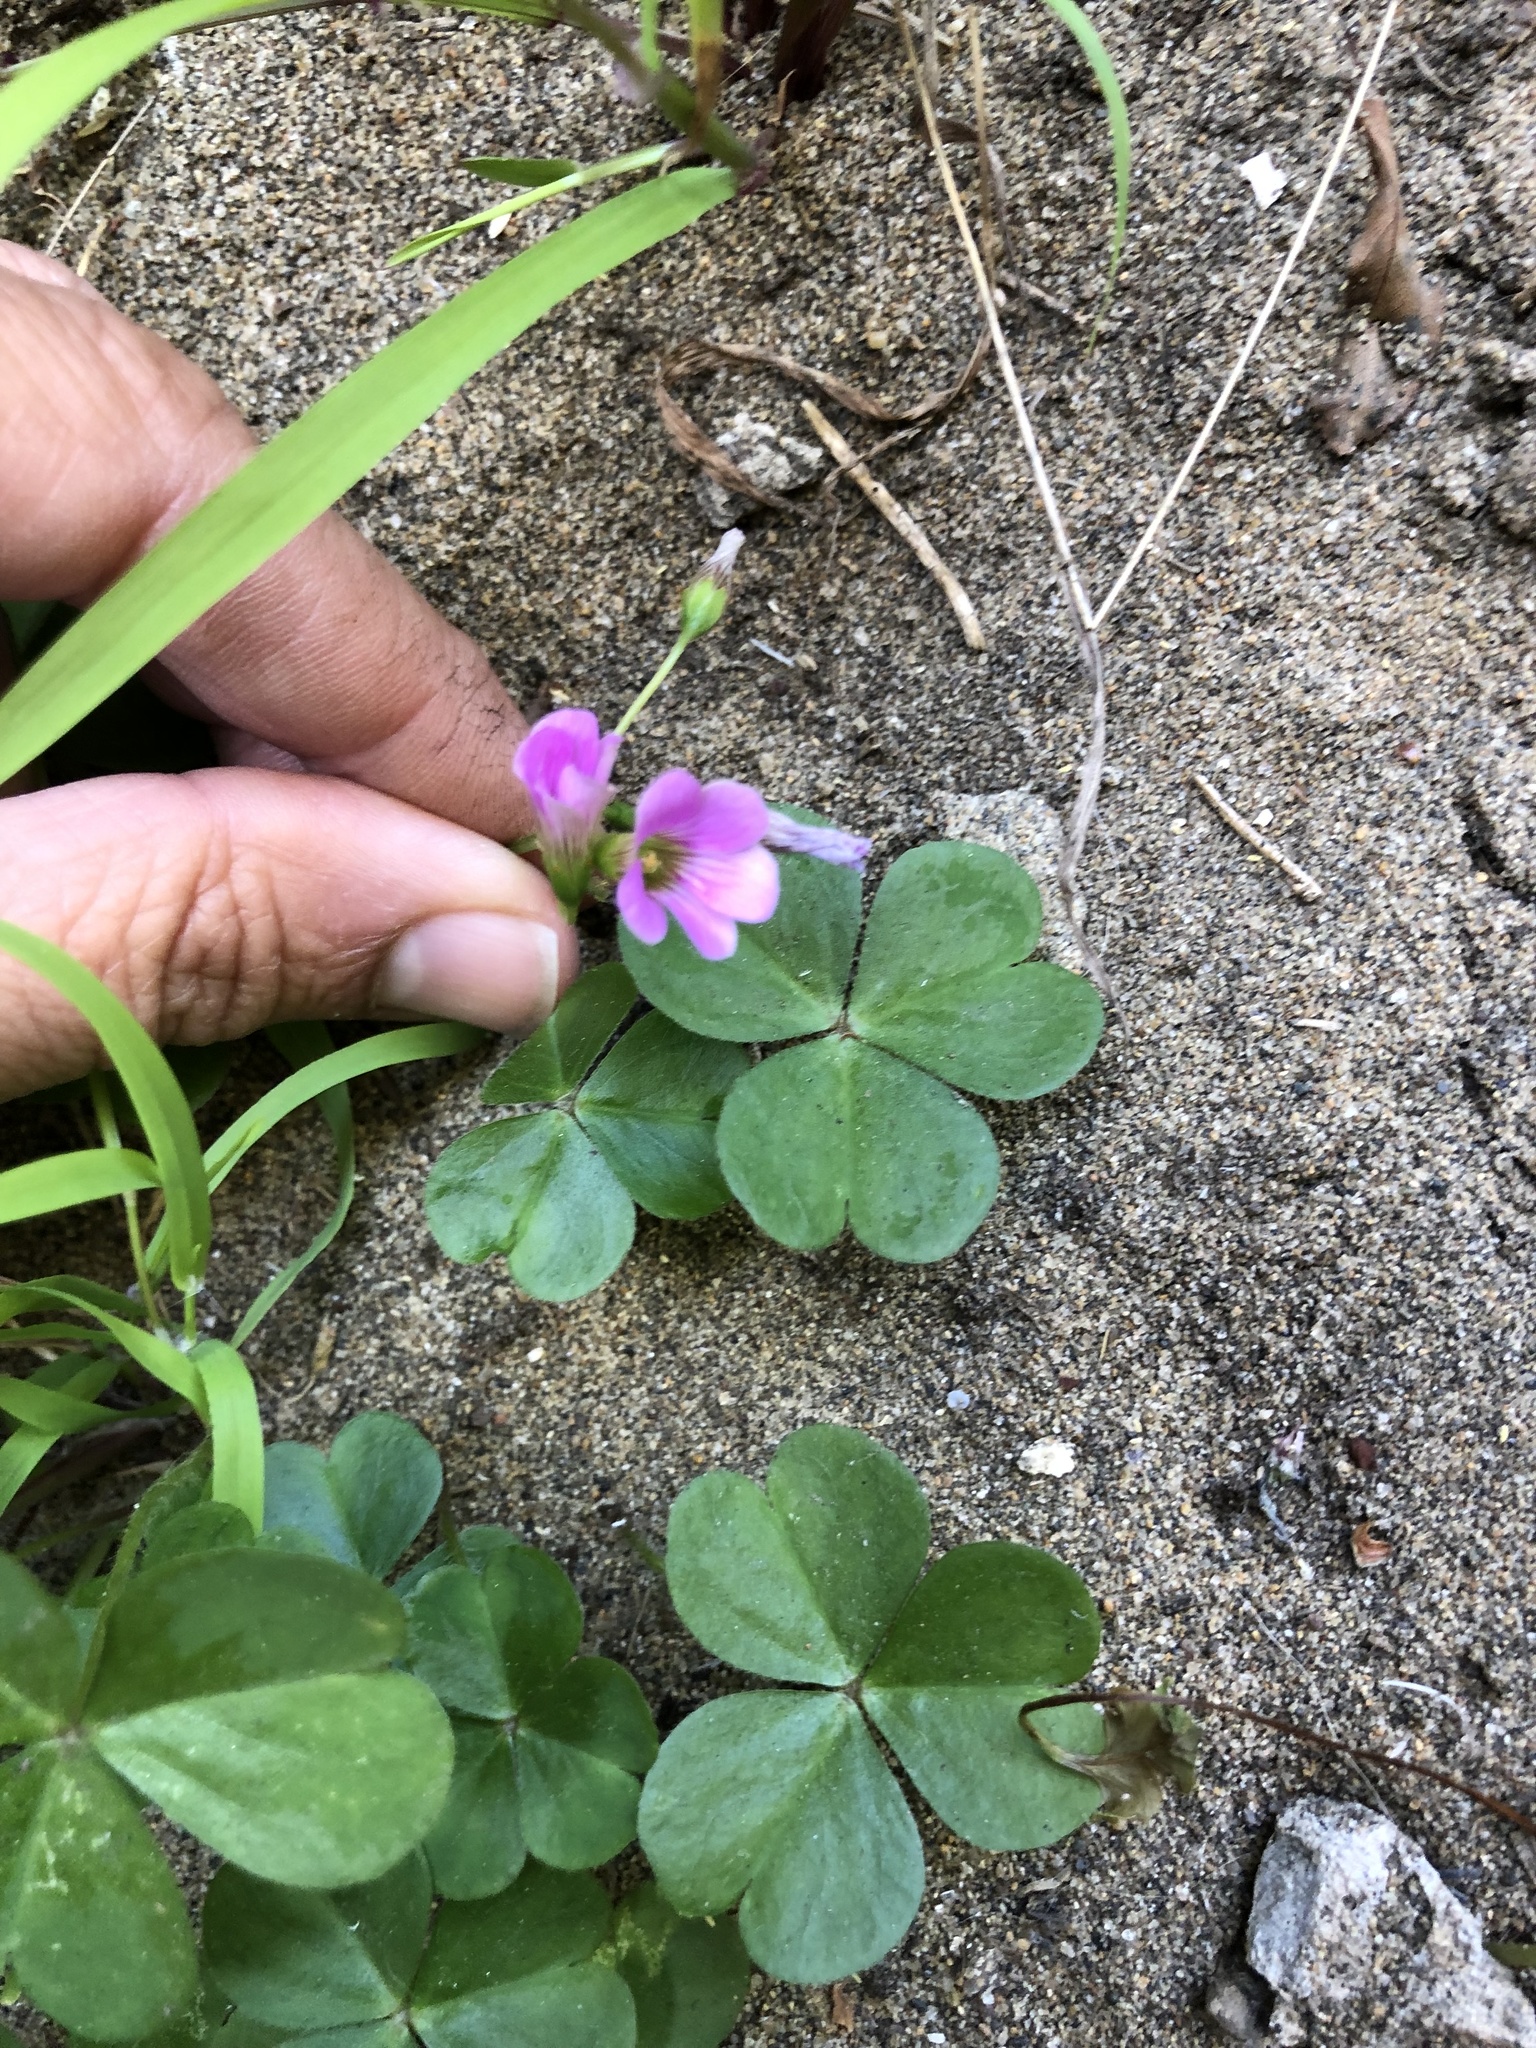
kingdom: Plantae
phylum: Tracheophyta
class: Magnoliopsida
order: Oxalidales
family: Oxalidaceae
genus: Oxalis
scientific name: Oxalis debilis
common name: Large-flowered pink-sorrel
